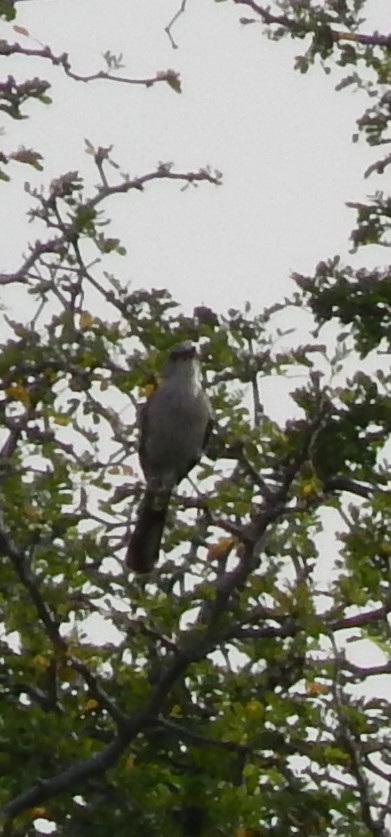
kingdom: Animalia
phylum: Chordata
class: Aves
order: Passeriformes
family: Mimidae
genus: Mimus
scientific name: Mimus polyglottos
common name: Northern mockingbird
